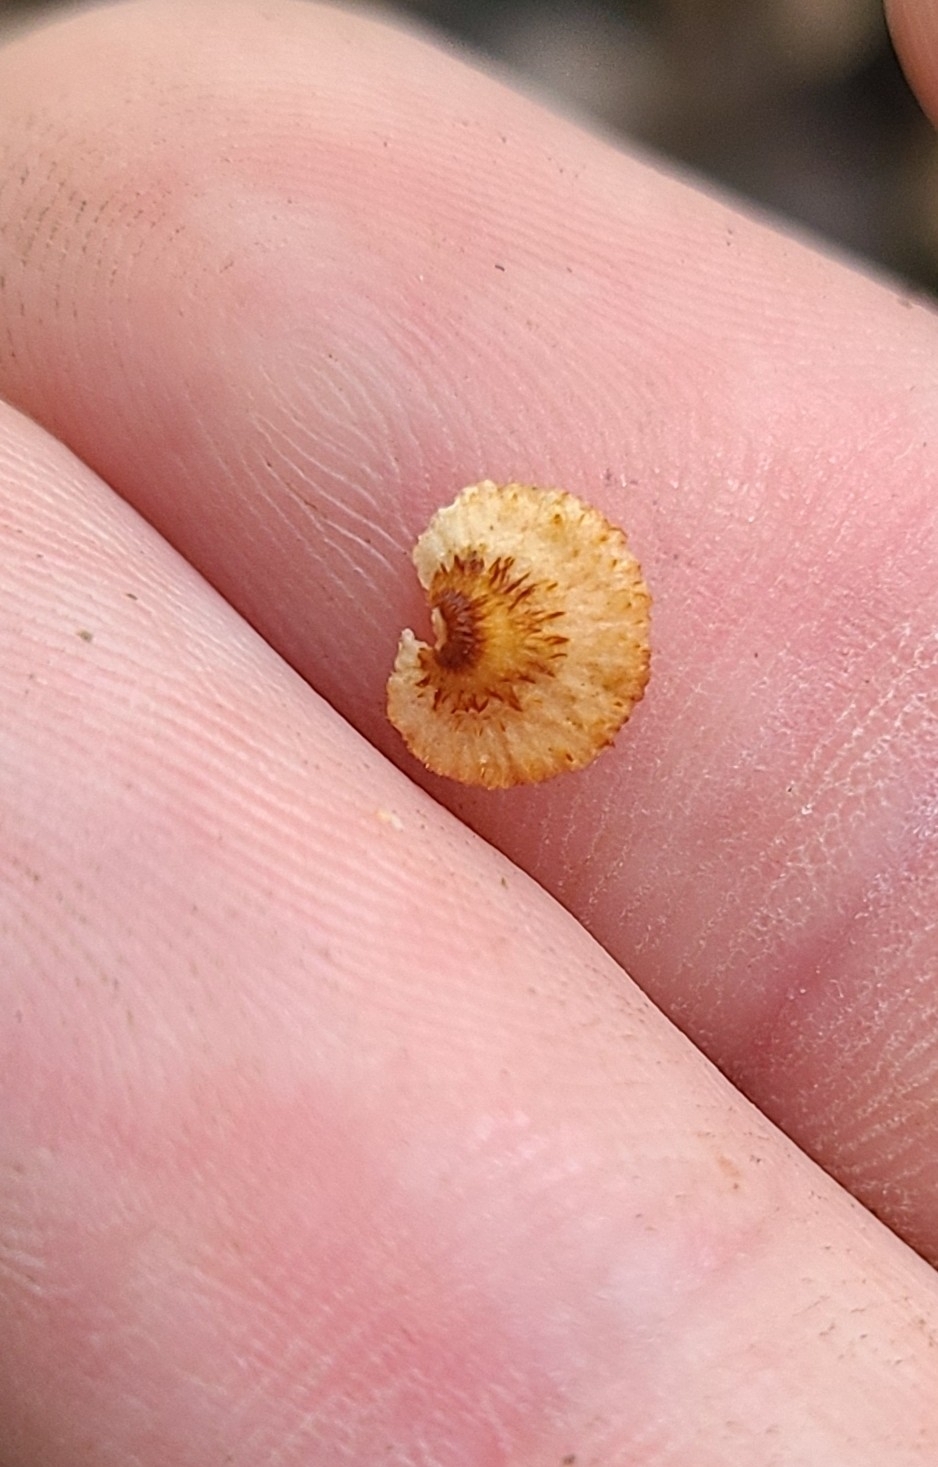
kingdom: Fungi
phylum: Basidiomycota
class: Agaricomycetes
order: Agaricales
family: Marasmiaceae
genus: Chaetocalathus
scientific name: Chaetocalathus cocciformis
